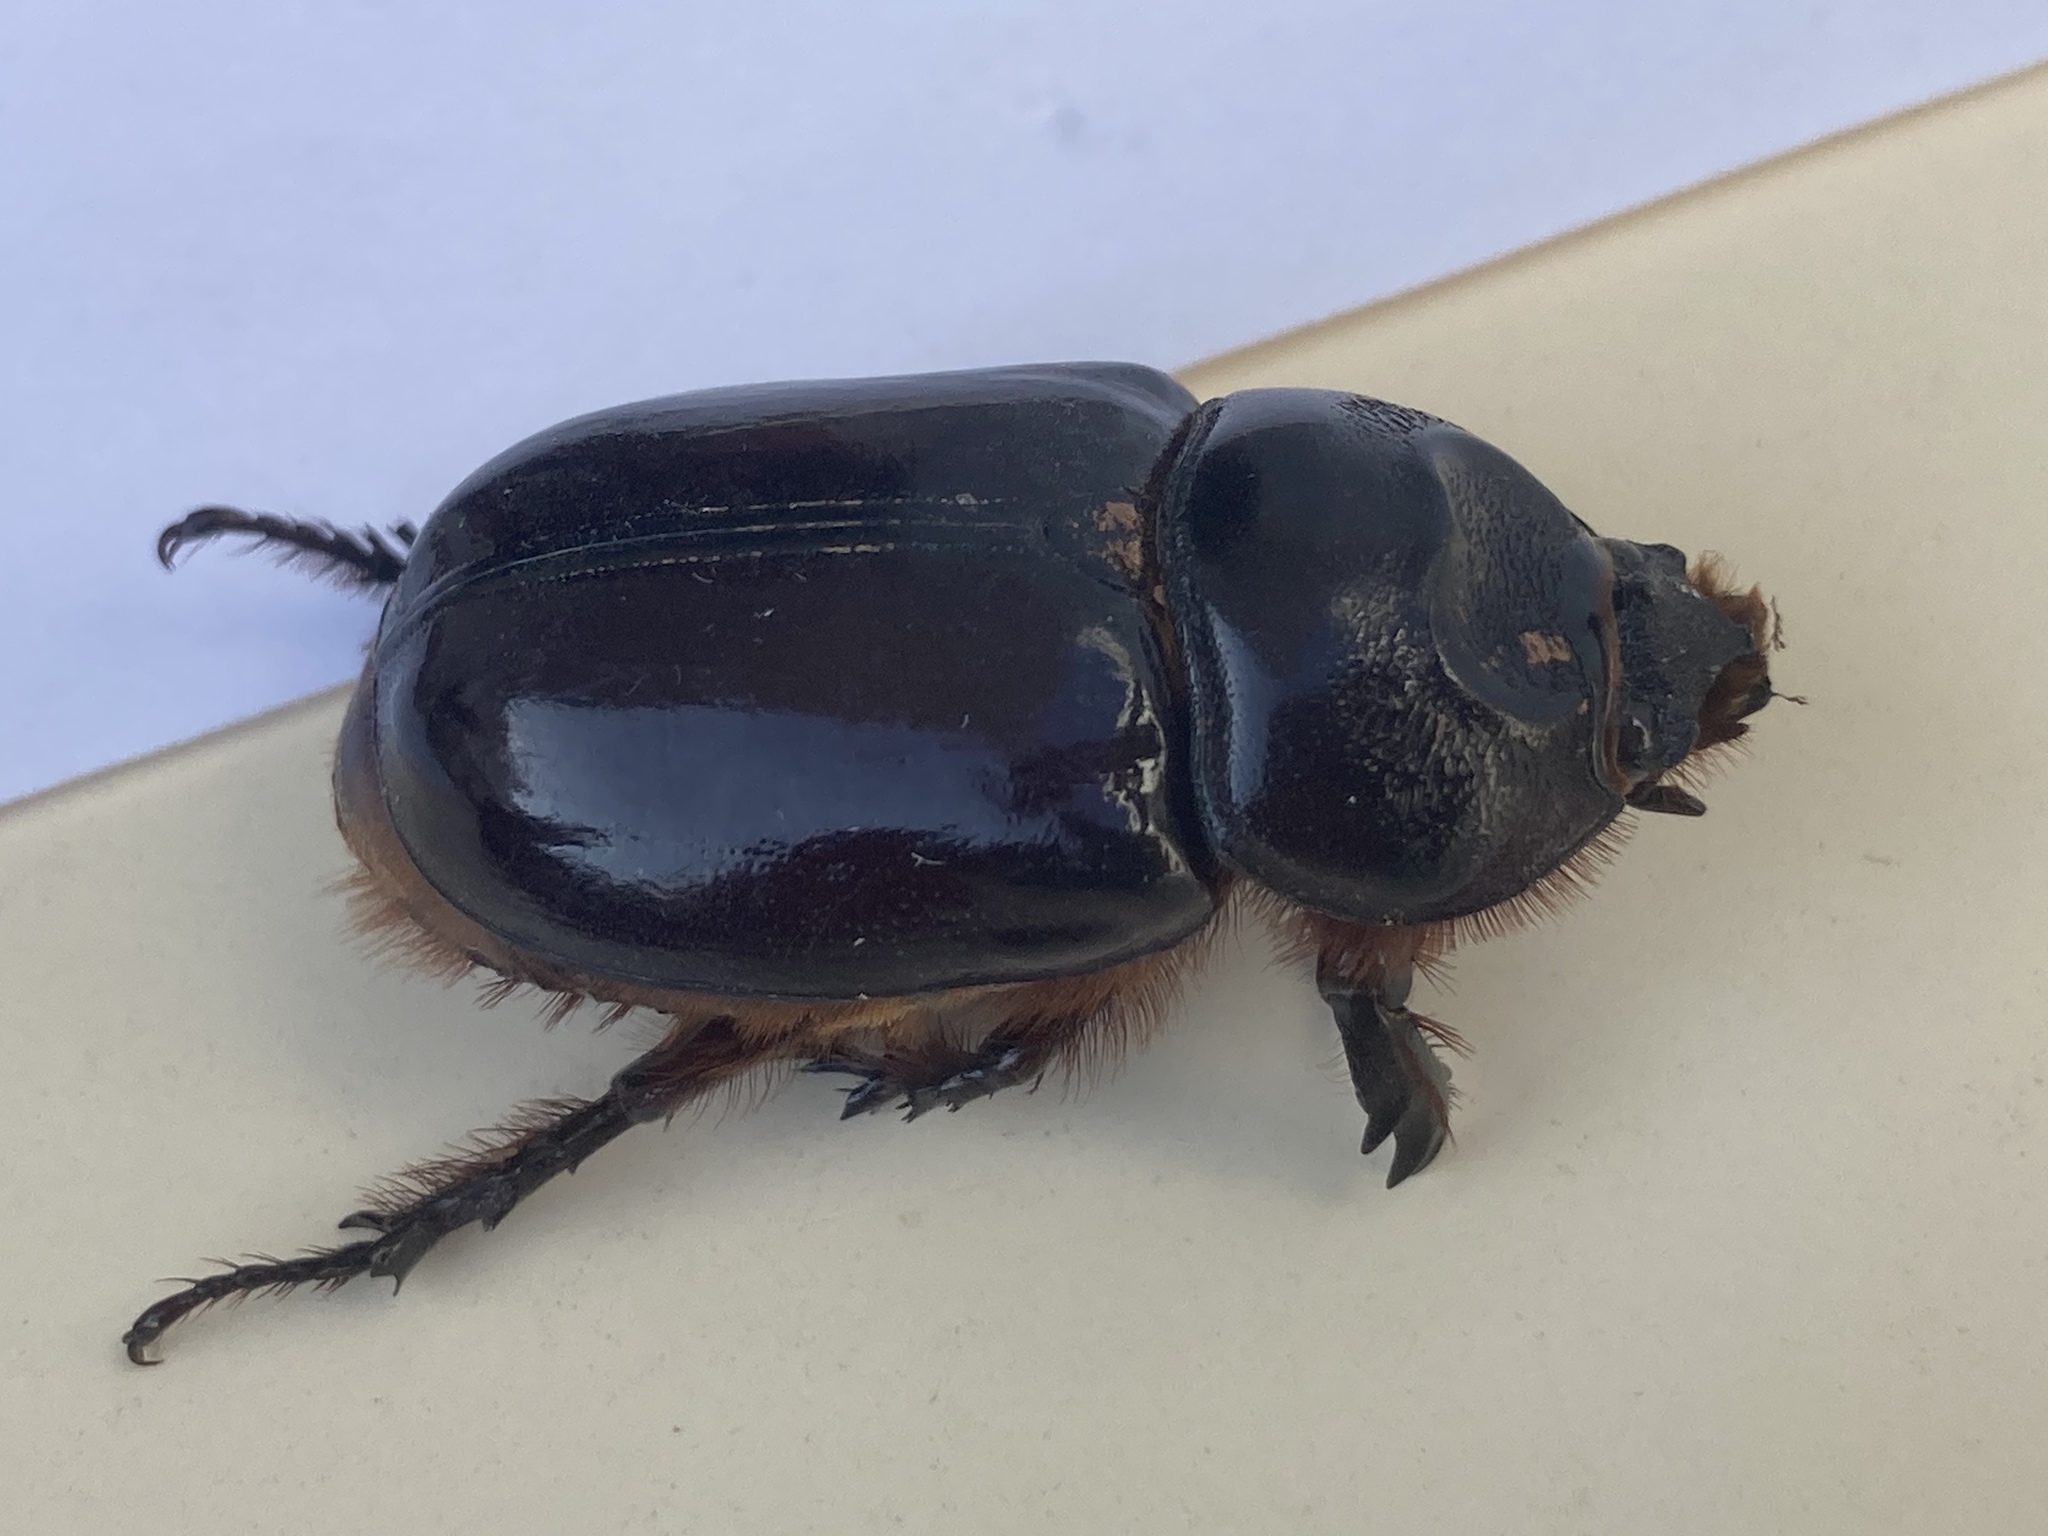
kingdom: Animalia
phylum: Arthropoda
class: Insecta
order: Coleoptera
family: Scarabaeidae
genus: Oryctes
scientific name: Oryctes nasicornis
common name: European rhinoceros beetle
